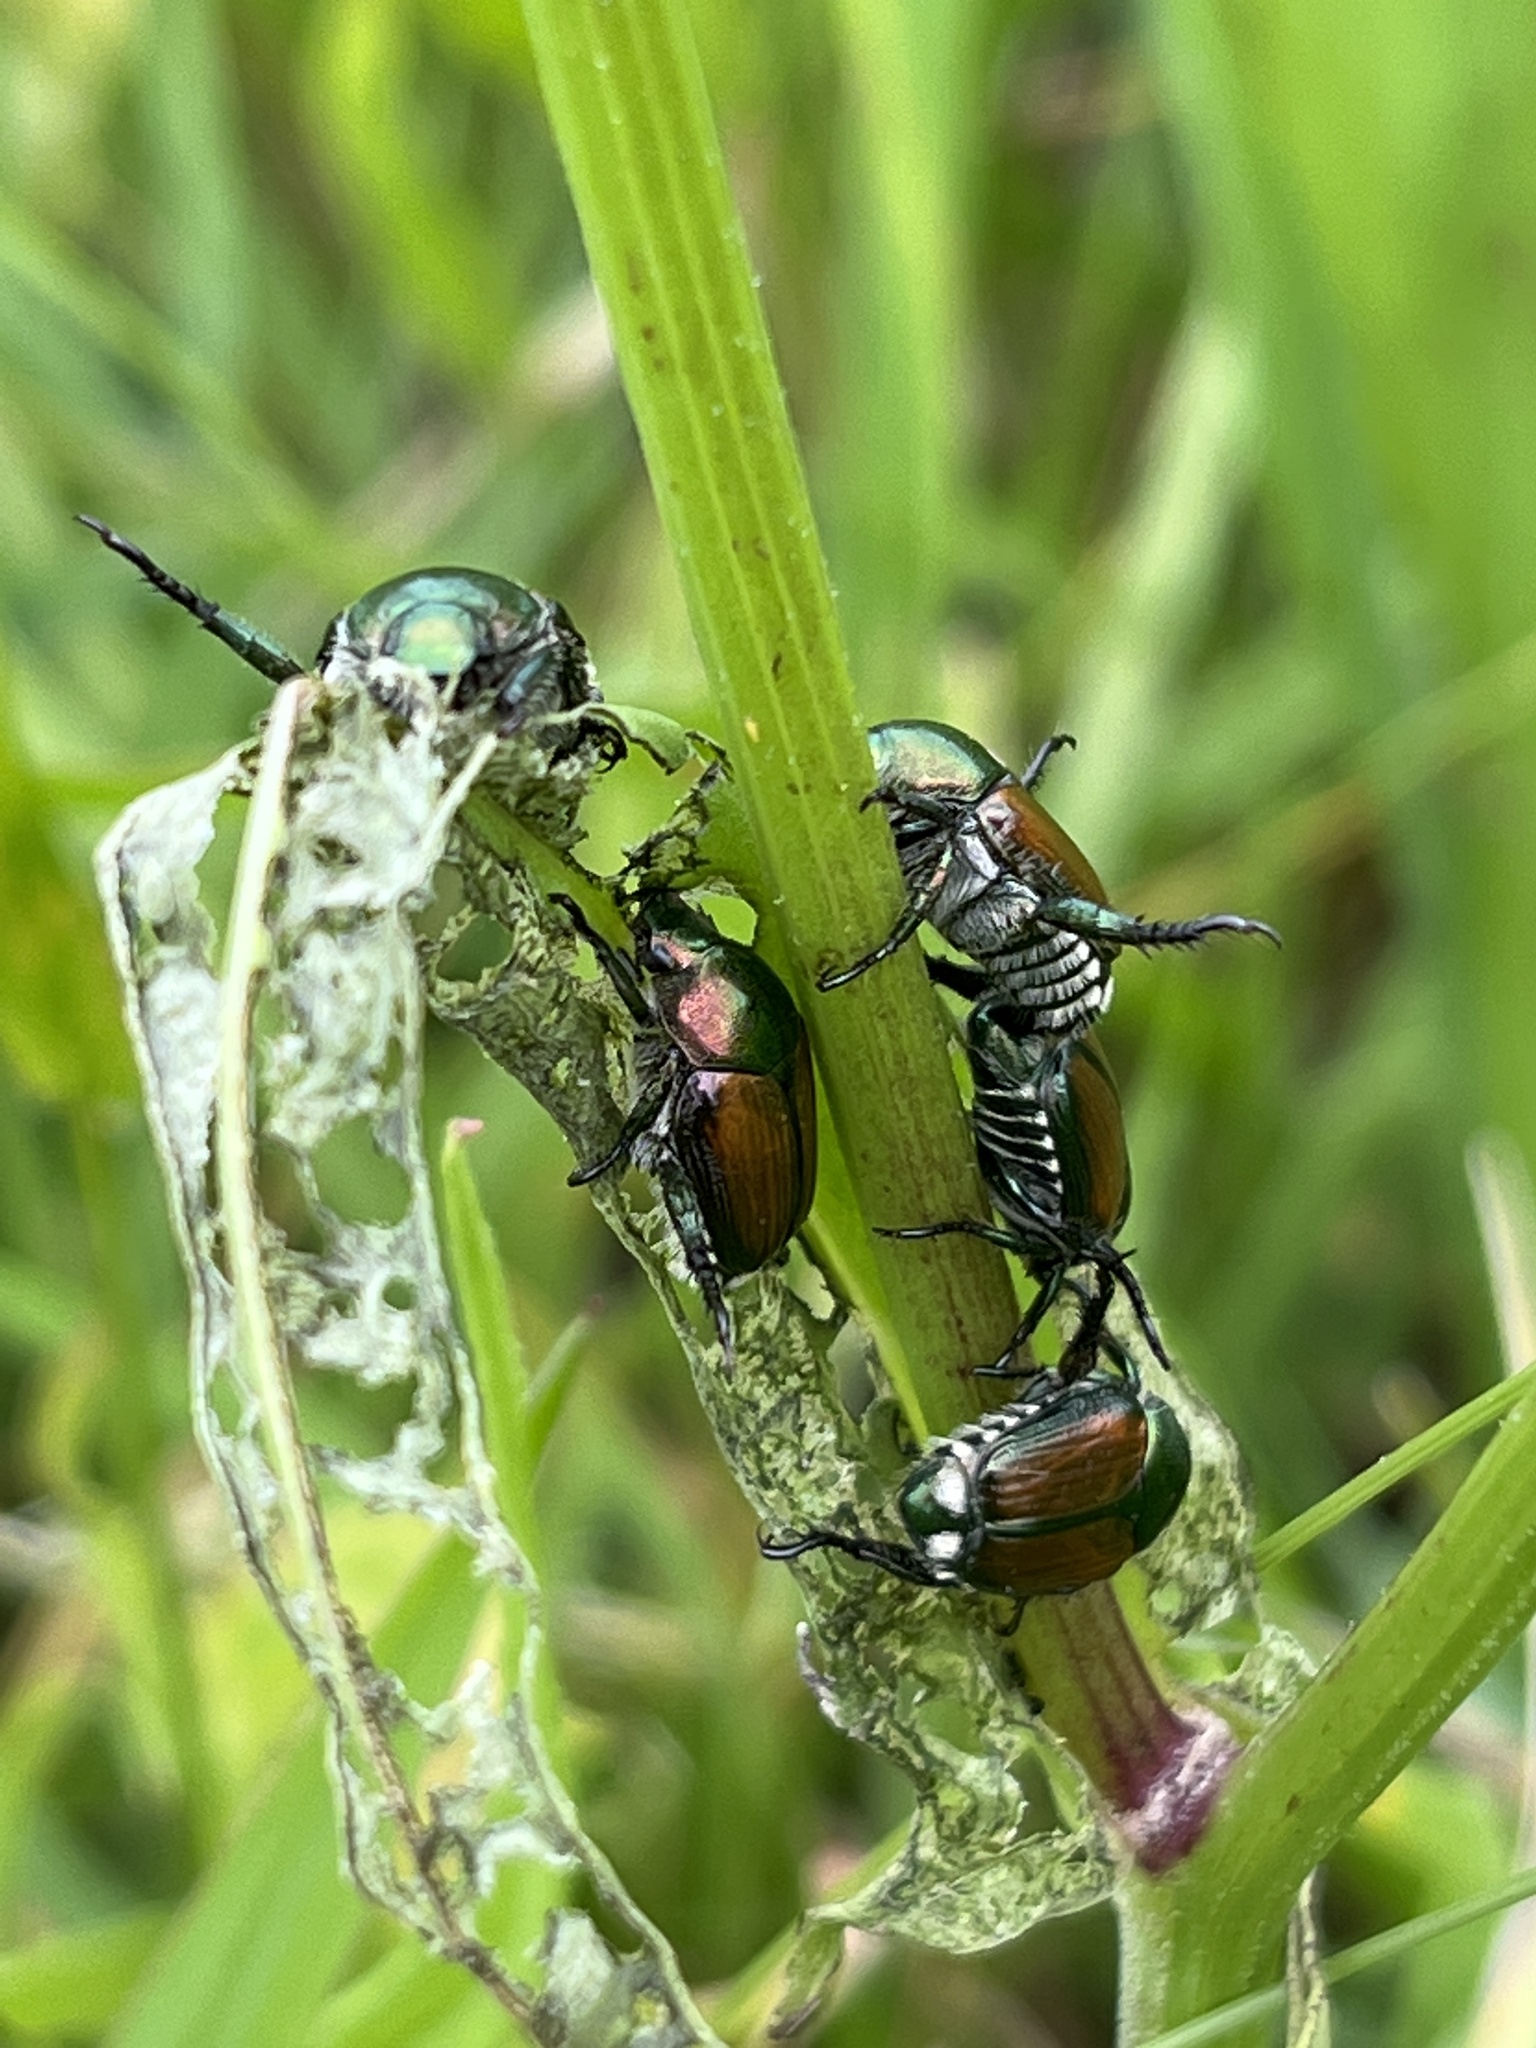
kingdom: Animalia
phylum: Arthropoda
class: Insecta
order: Coleoptera
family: Scarabaeidae
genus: Popillia
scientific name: Popillia japonica
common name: Japanese beetle
